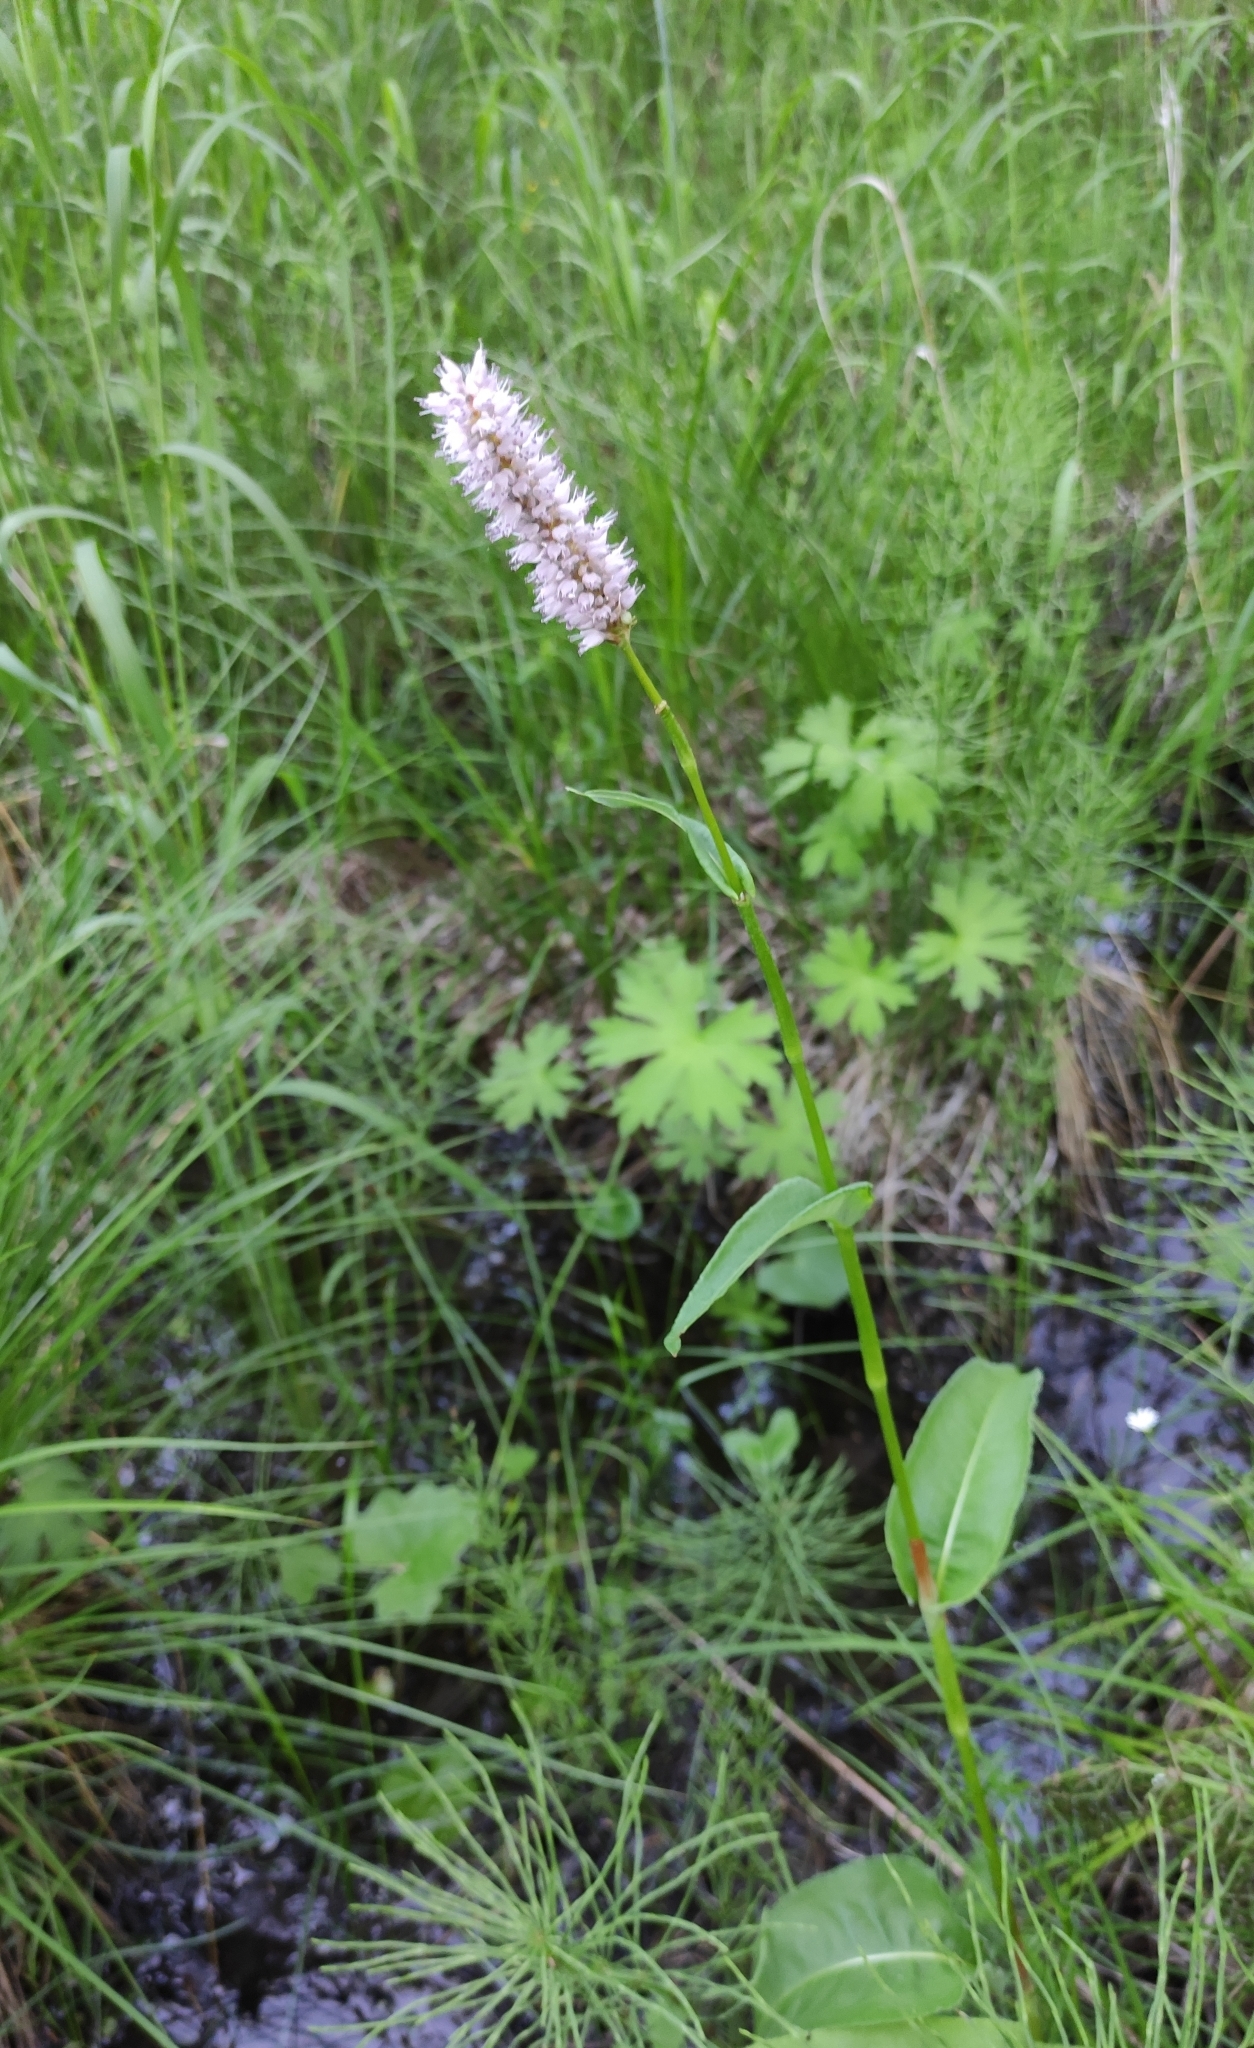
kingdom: Plantae
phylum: Tracheophyta
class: Magnoliopsida
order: Caryophyllales
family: Polygonaceae
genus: Bistorta
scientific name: Bistorta officinalis
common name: Common bistort
